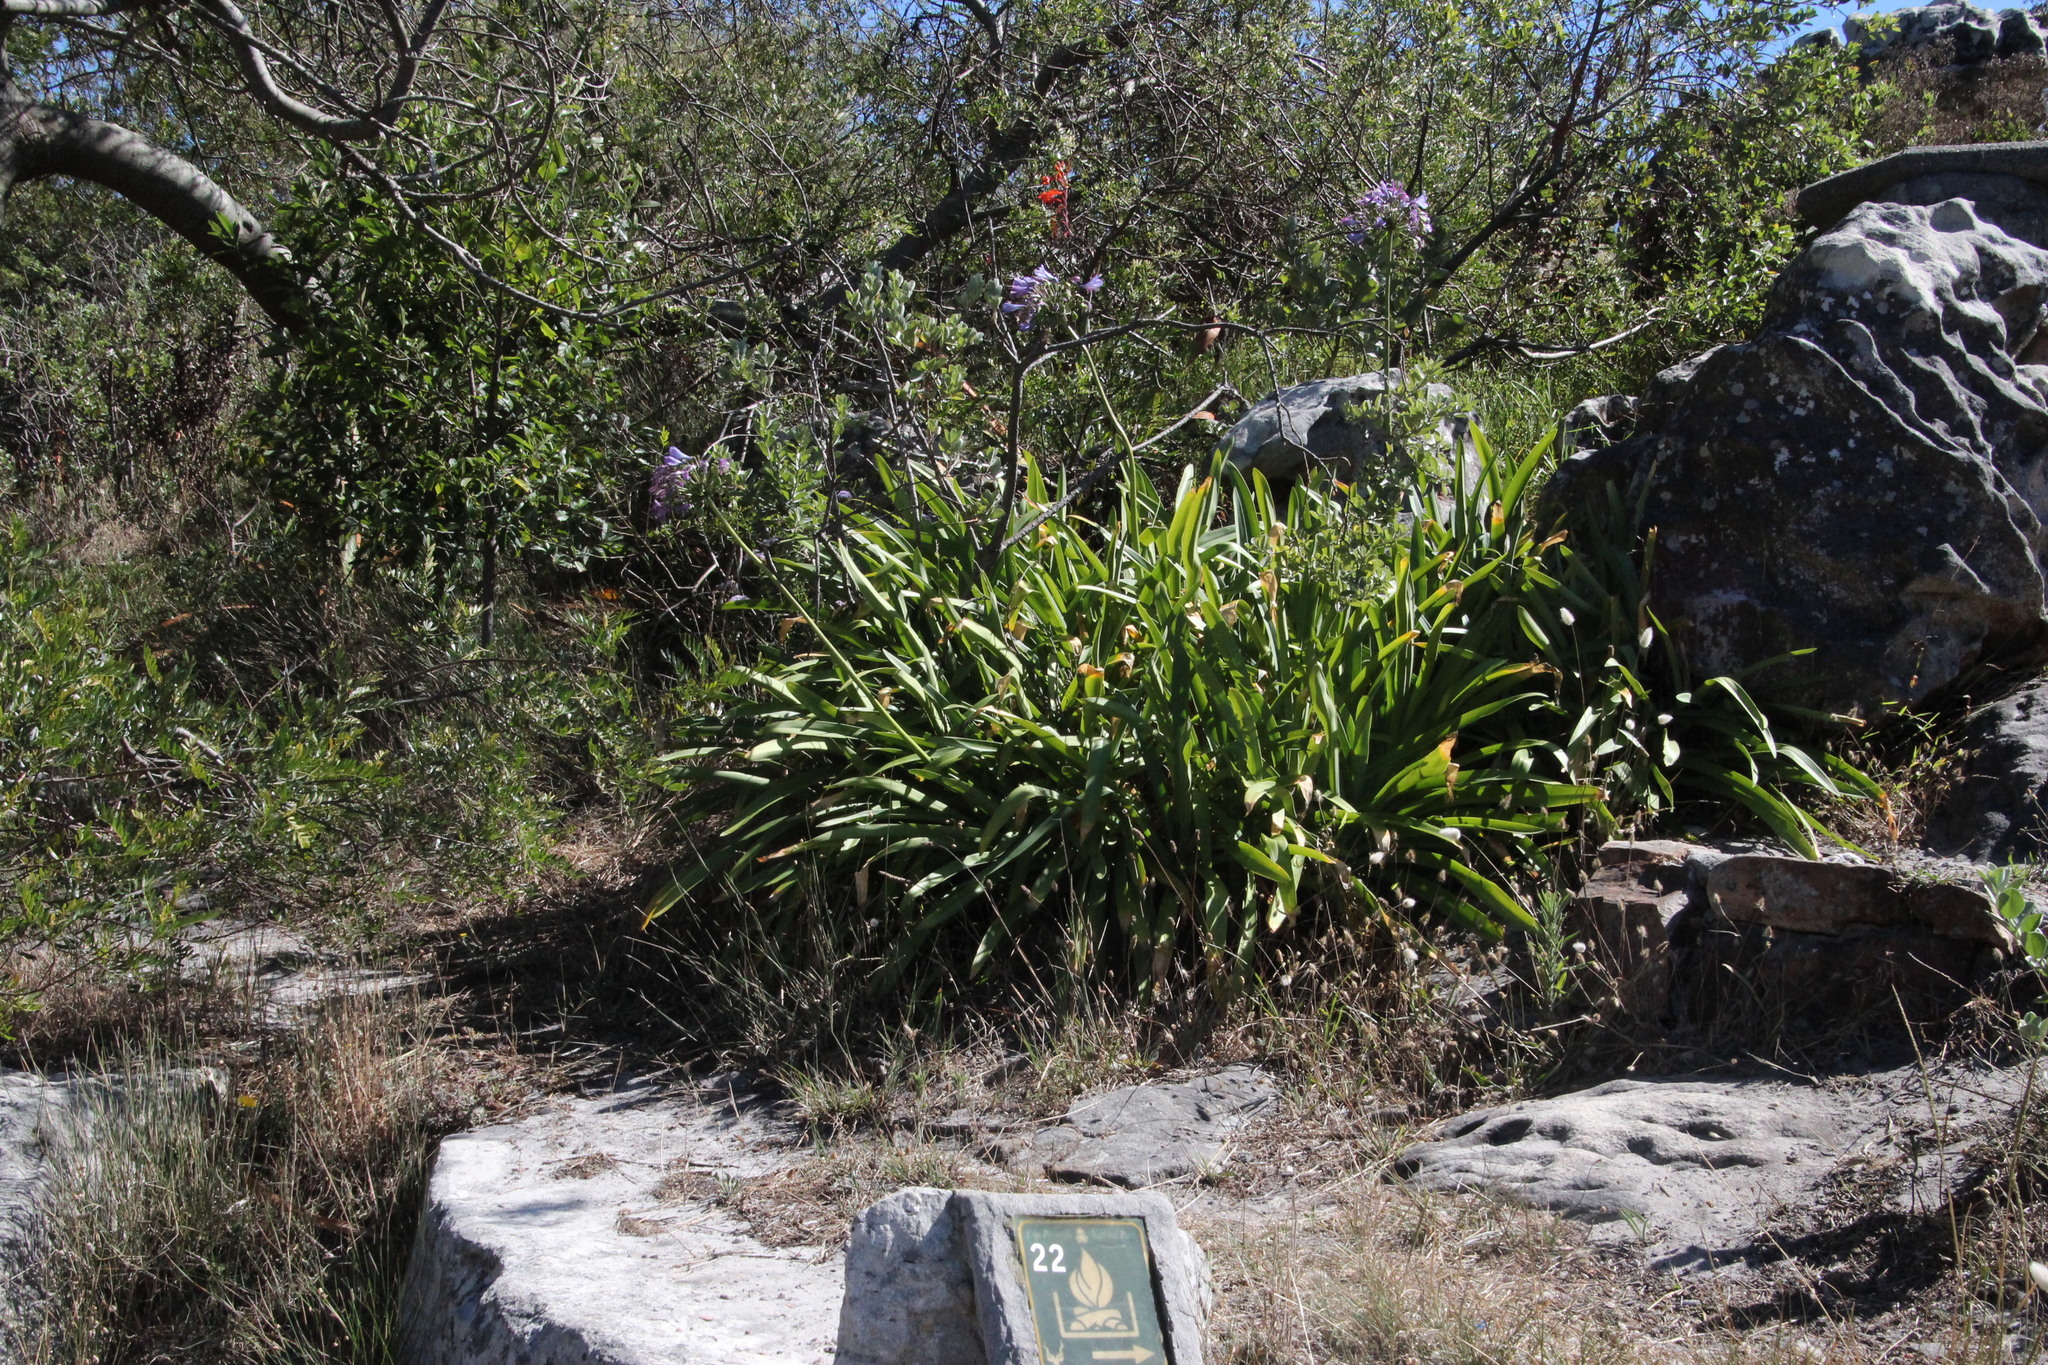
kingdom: Plantae
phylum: Tracheophyta
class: Liliopsida
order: Asparagales
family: Amaryllidaceae
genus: Agapanthus
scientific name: Agapanthus praecox
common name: African-lily
